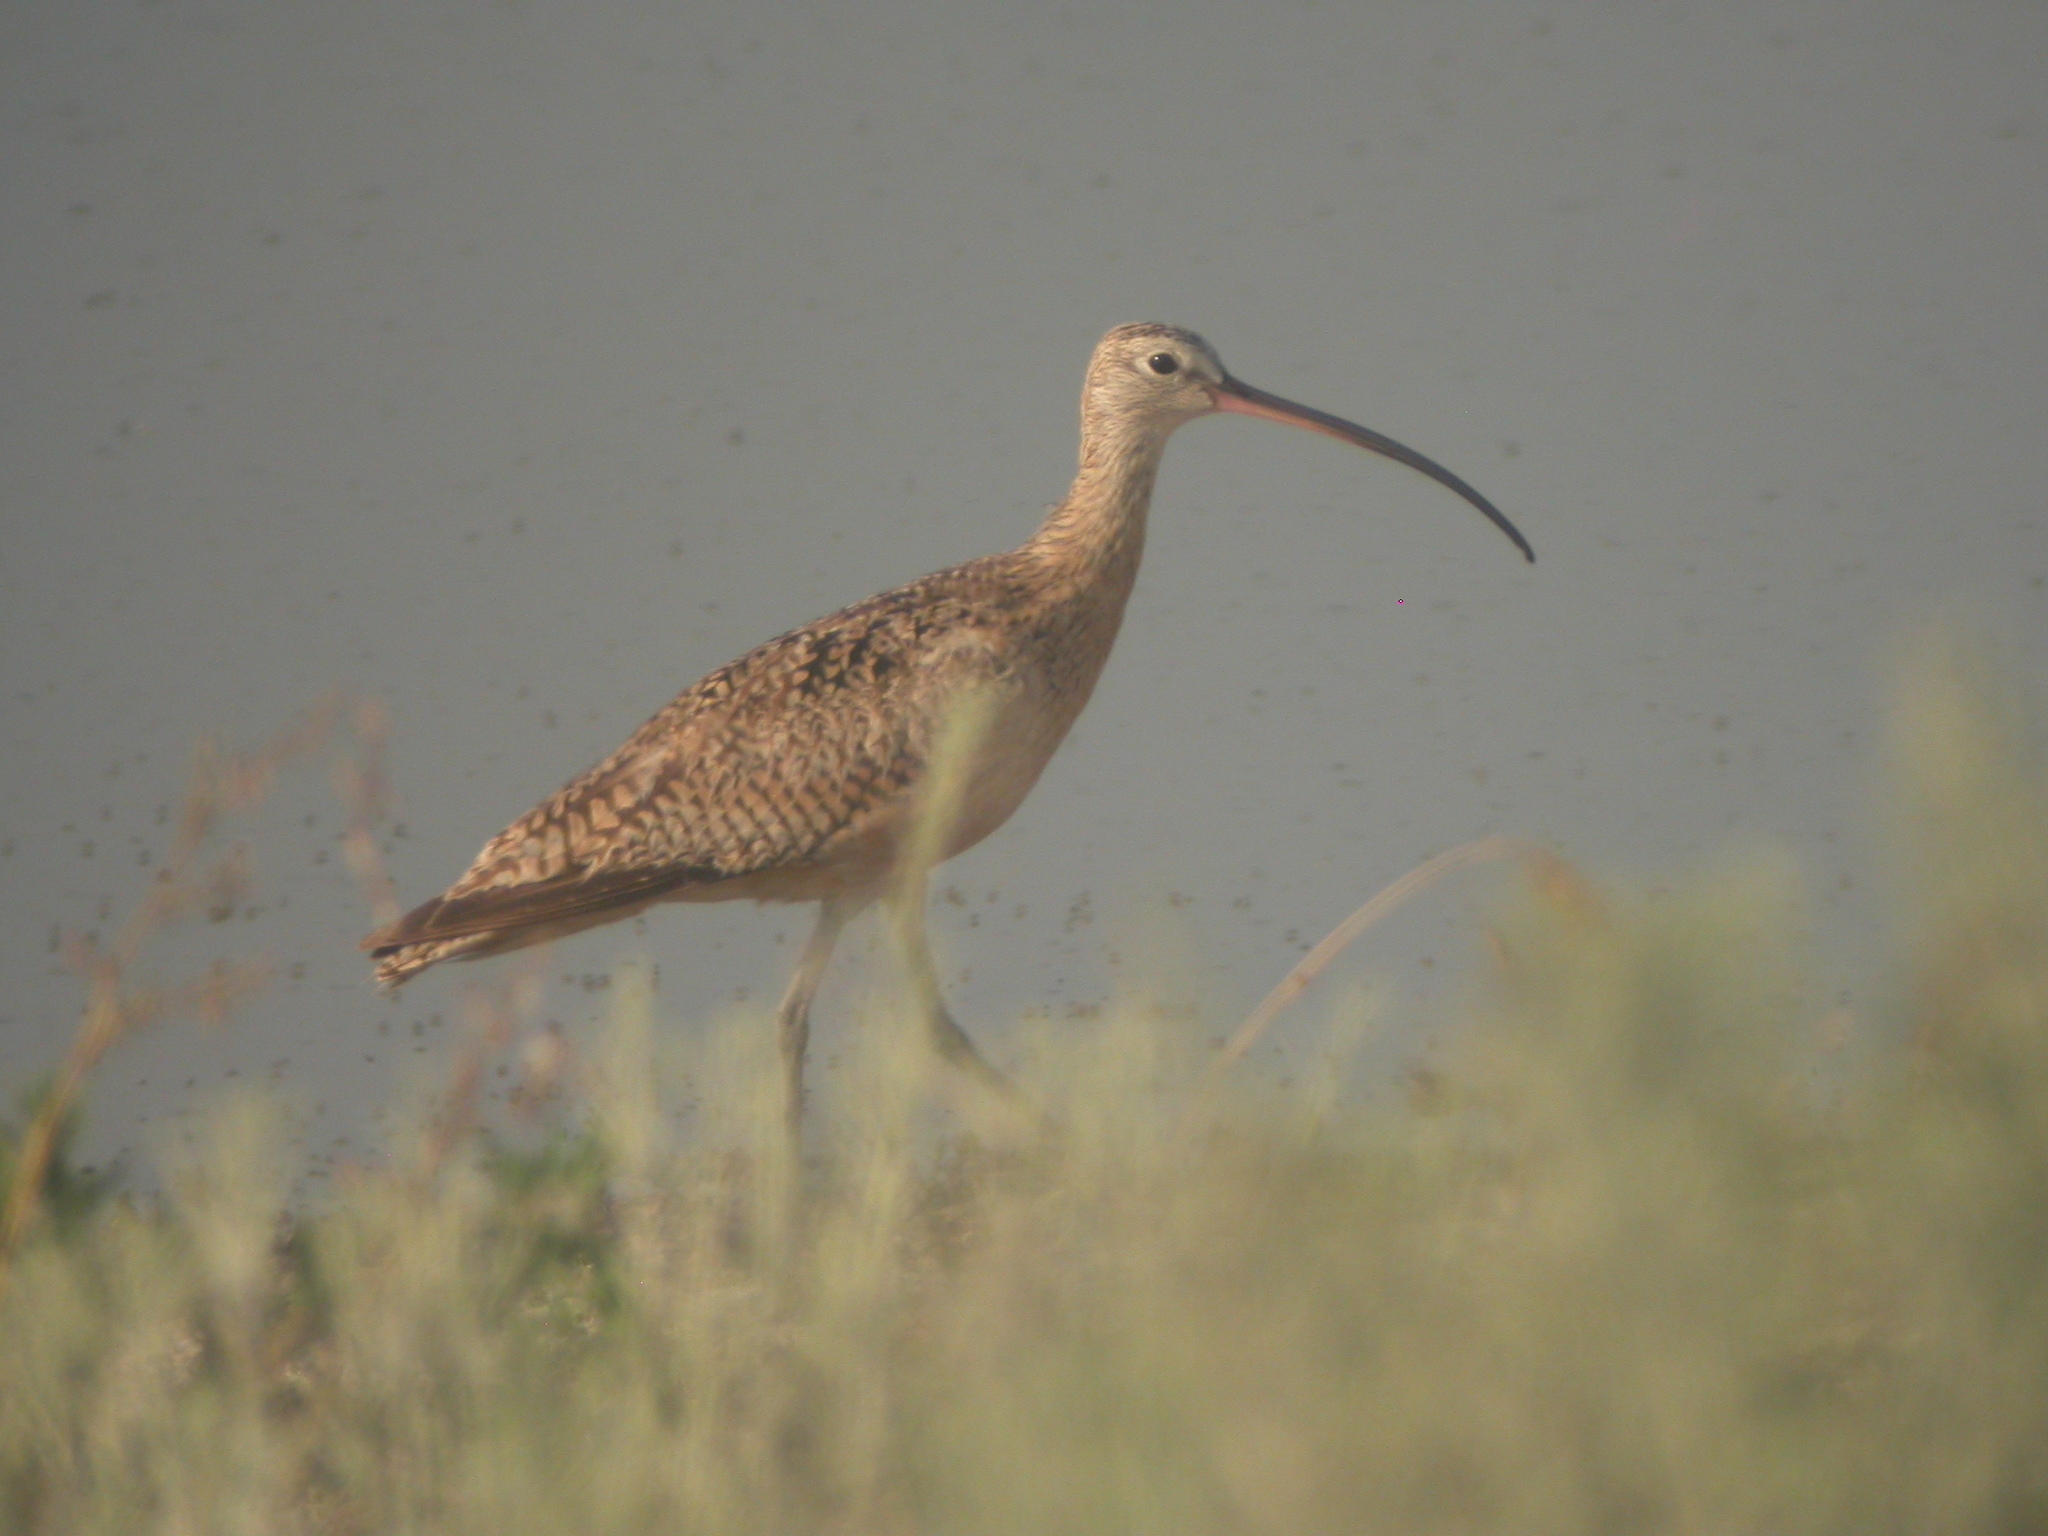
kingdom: Animalia
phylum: Chordata
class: Aves
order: Charadriiformes
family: Scolopacidae
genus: Numenius
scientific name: Numenius americanus
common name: Long-billed curlew
